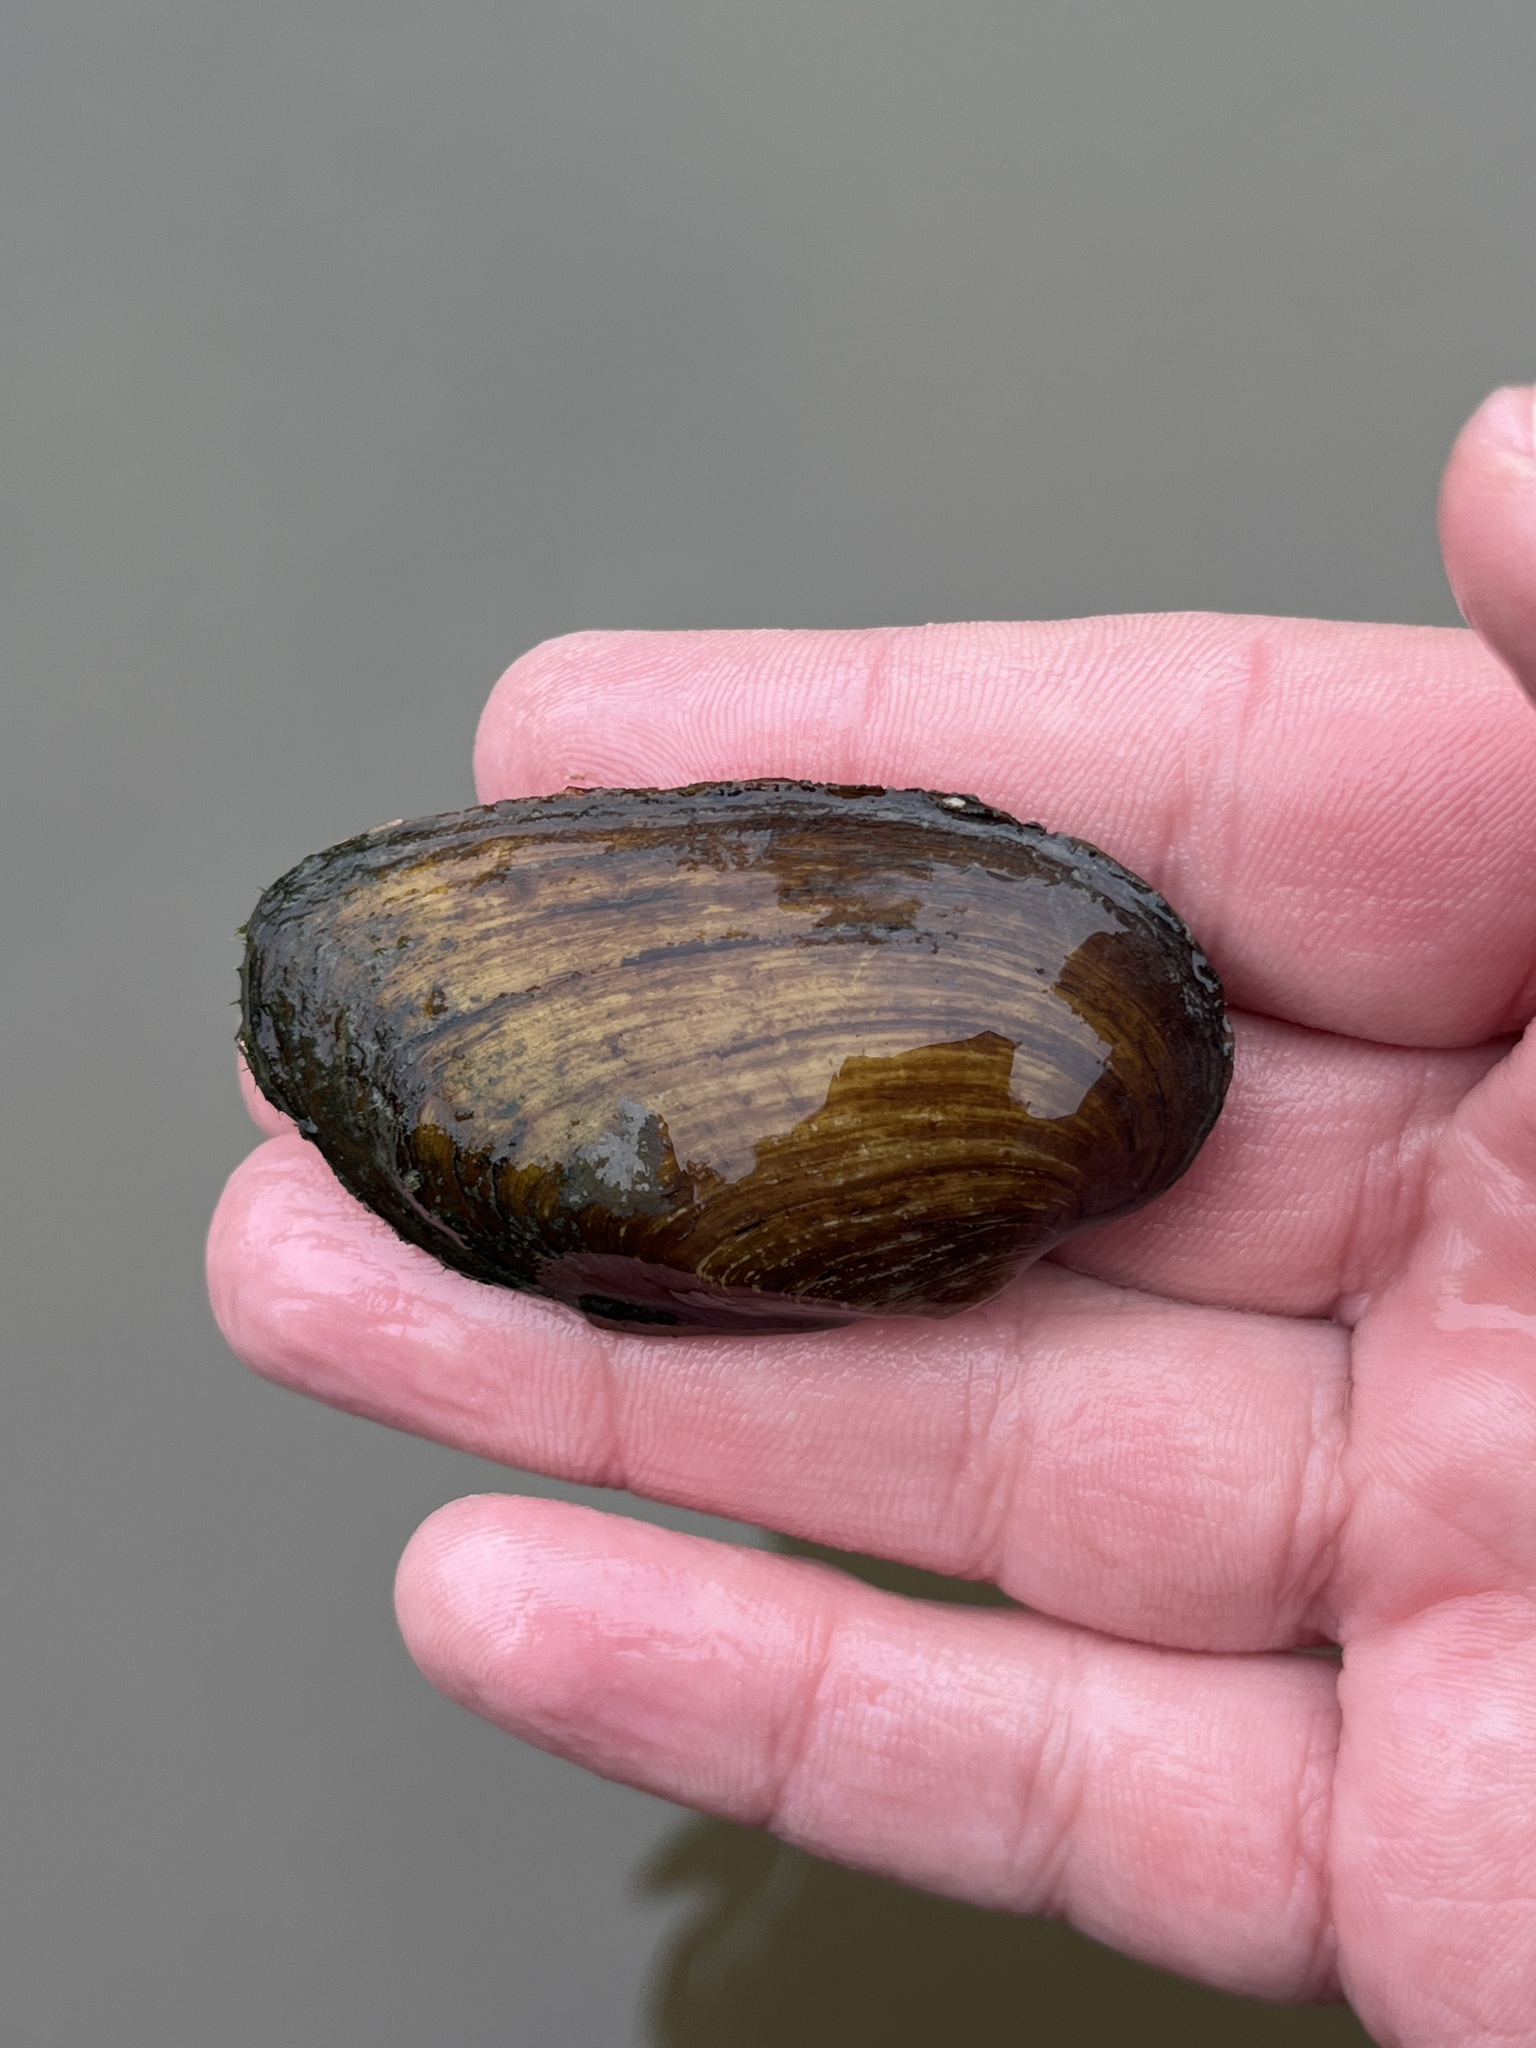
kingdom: Animalia
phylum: Mollusca
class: Bivalvia
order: Unionida
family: Unionidae
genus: Eurynia
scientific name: Eurynia dilatata
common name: Spike
